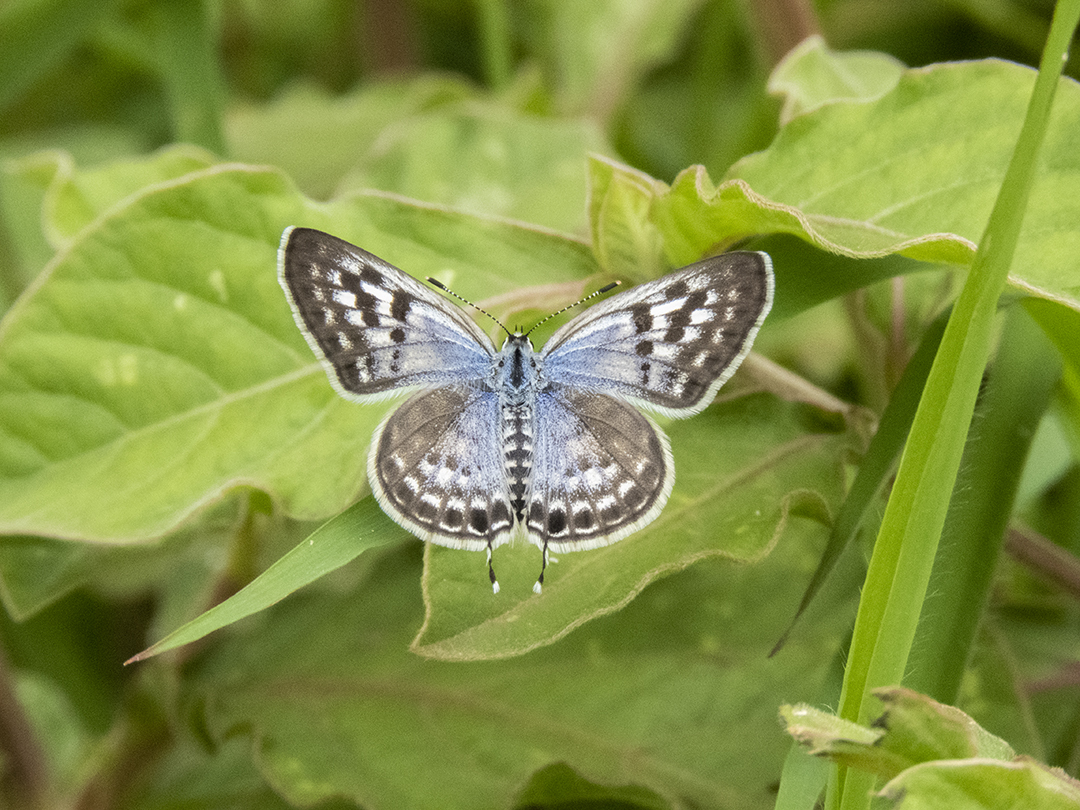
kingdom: Animalia
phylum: Arthropoda
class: Insecta
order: Lepidoptera
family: Lycaenidae
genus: Leptotes
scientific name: Leptotes plinius
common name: Zebra blue
